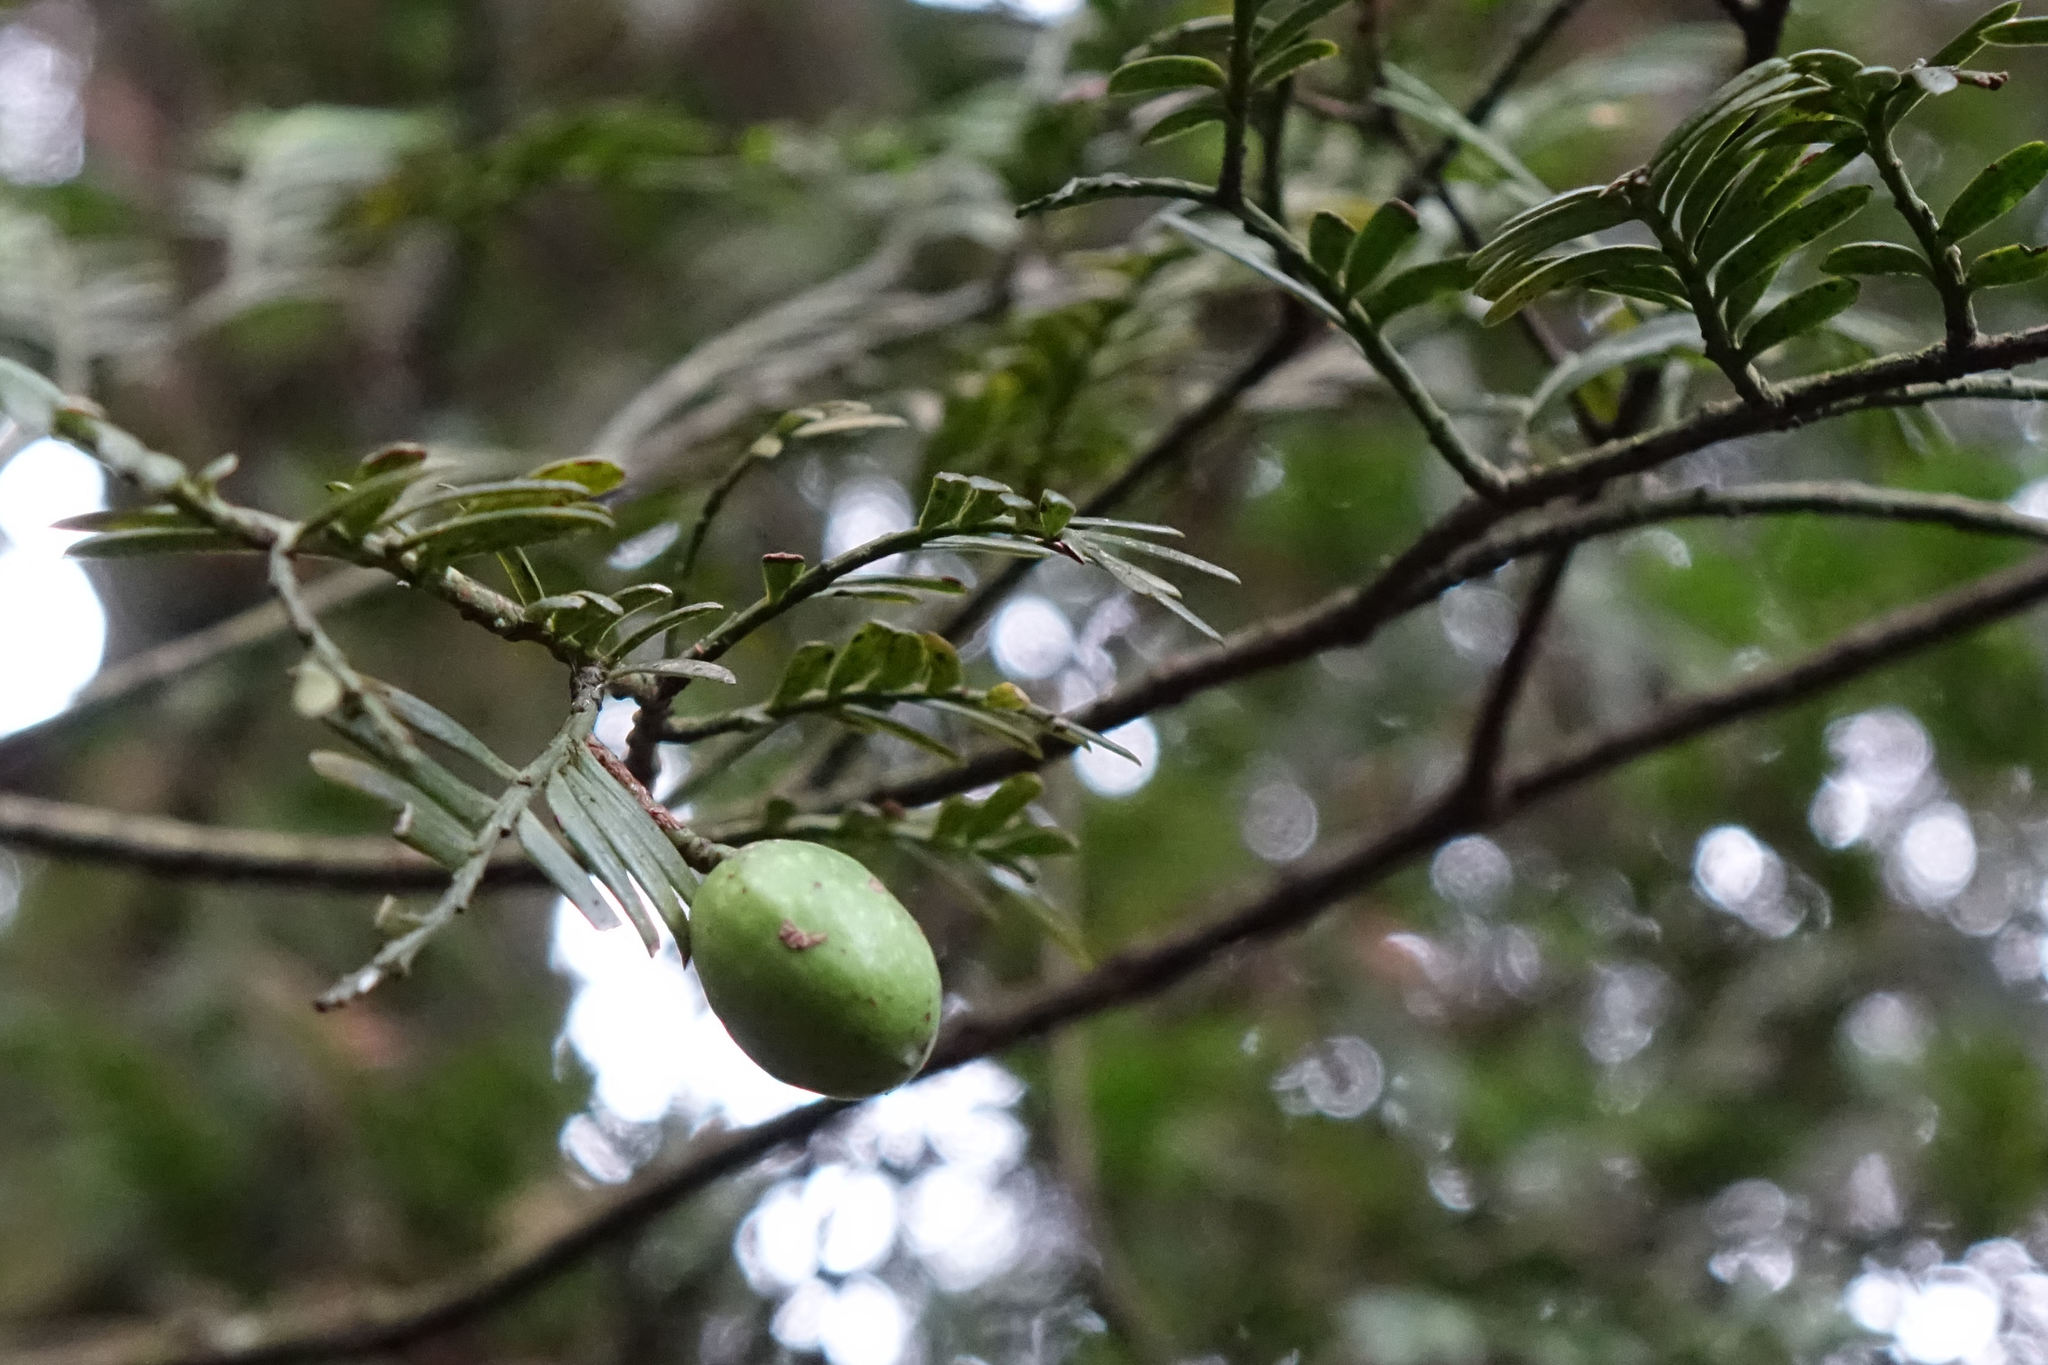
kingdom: Plantae
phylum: Tracheophyta
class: Pinopsida
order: Pinales
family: Podocarpaceae
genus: Prumnopitys
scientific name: Prumnopitys ferruginea
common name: Brown pine
